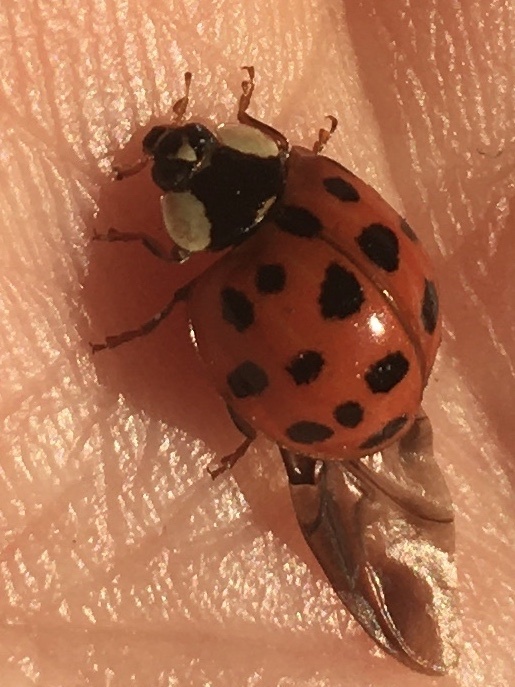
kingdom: Animalia
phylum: Arthropoda
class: Insecta
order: Coleoptera
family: Coccinellidae
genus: Harmonia
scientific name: Harmonia axyridis
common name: Harlequin ladybird
